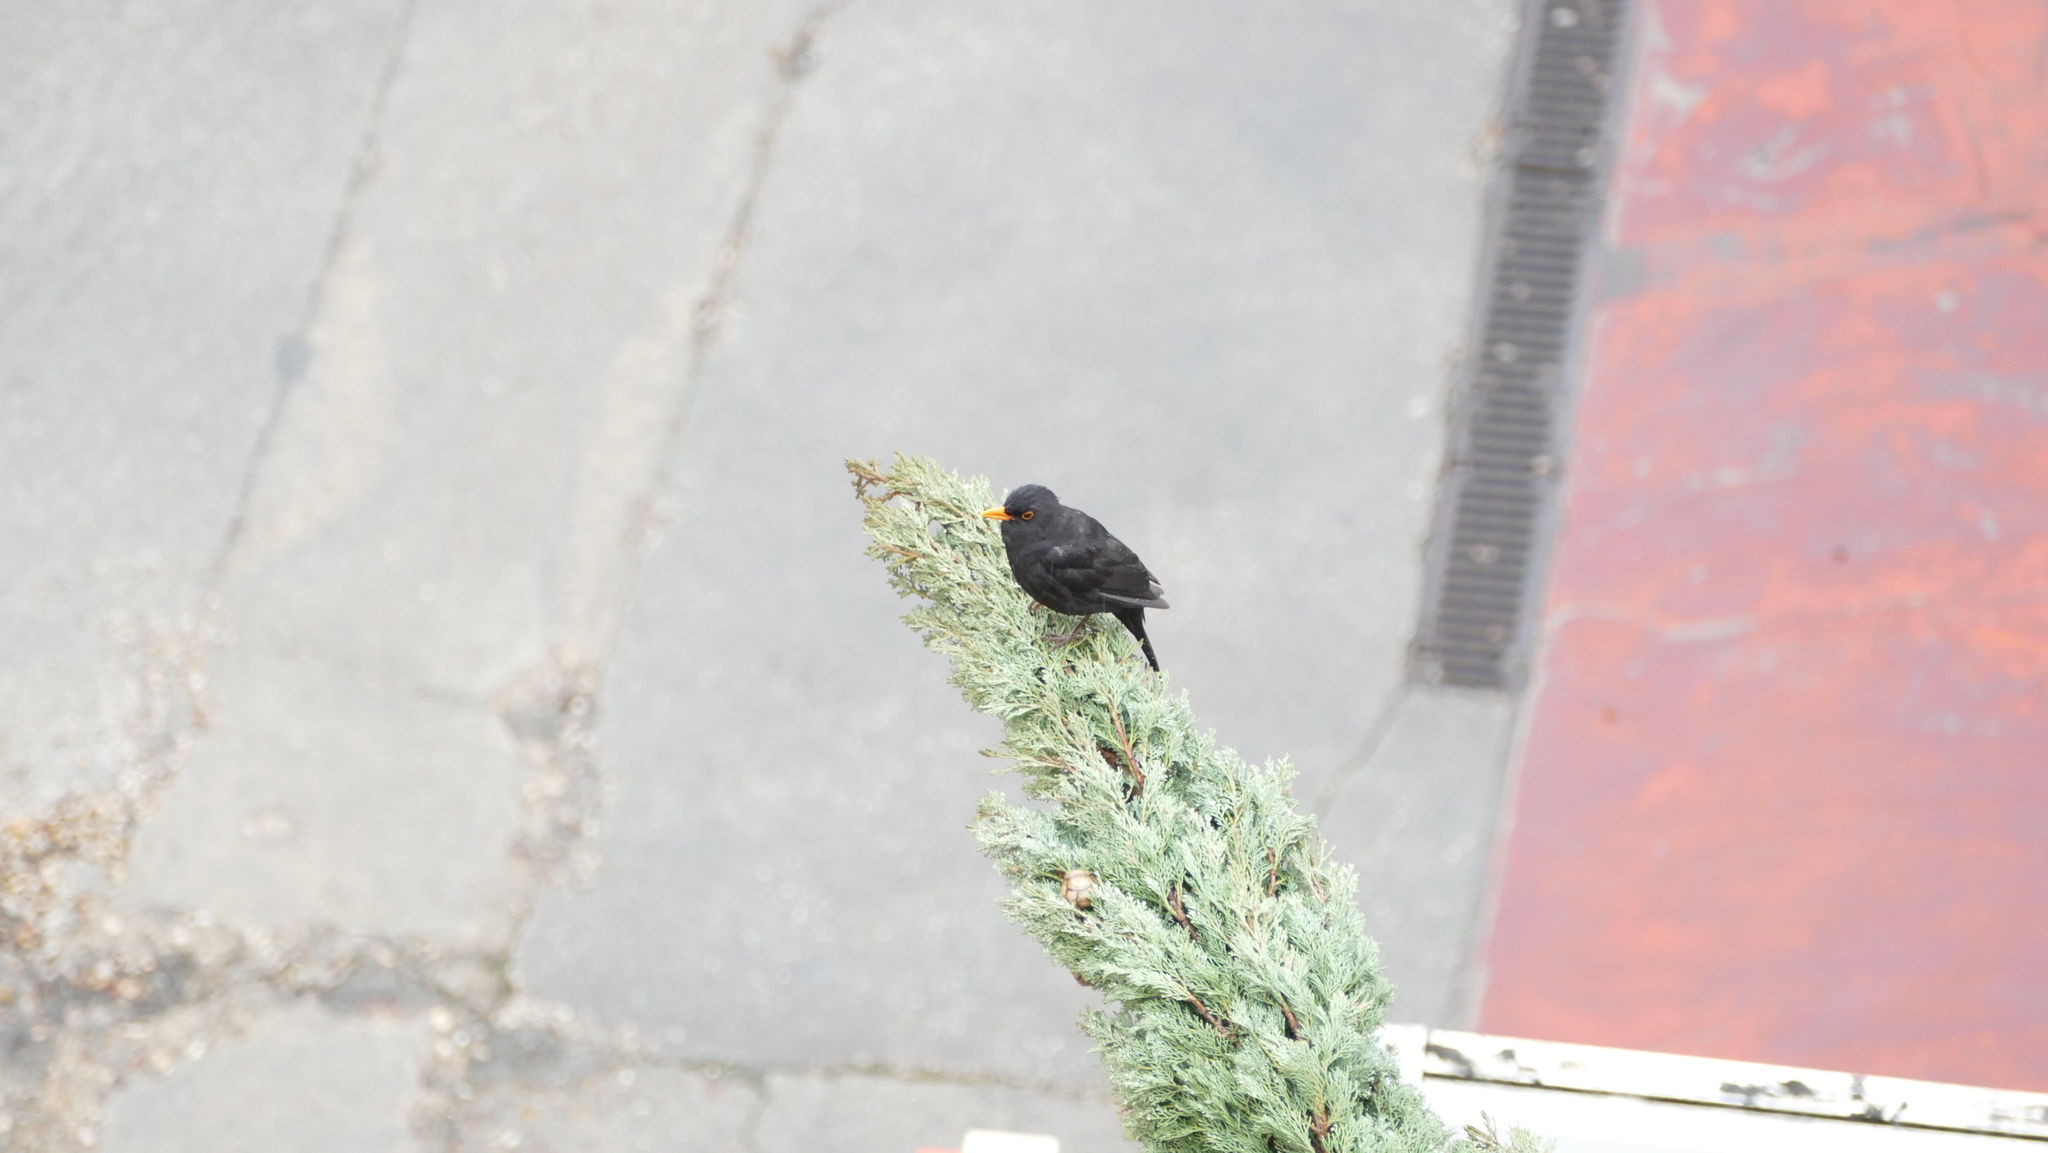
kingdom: Animalia
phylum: Chordata
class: Aves
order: Passeriformes
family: Turdidae
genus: Turdus
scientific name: Turdus merula
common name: Common blackbird
